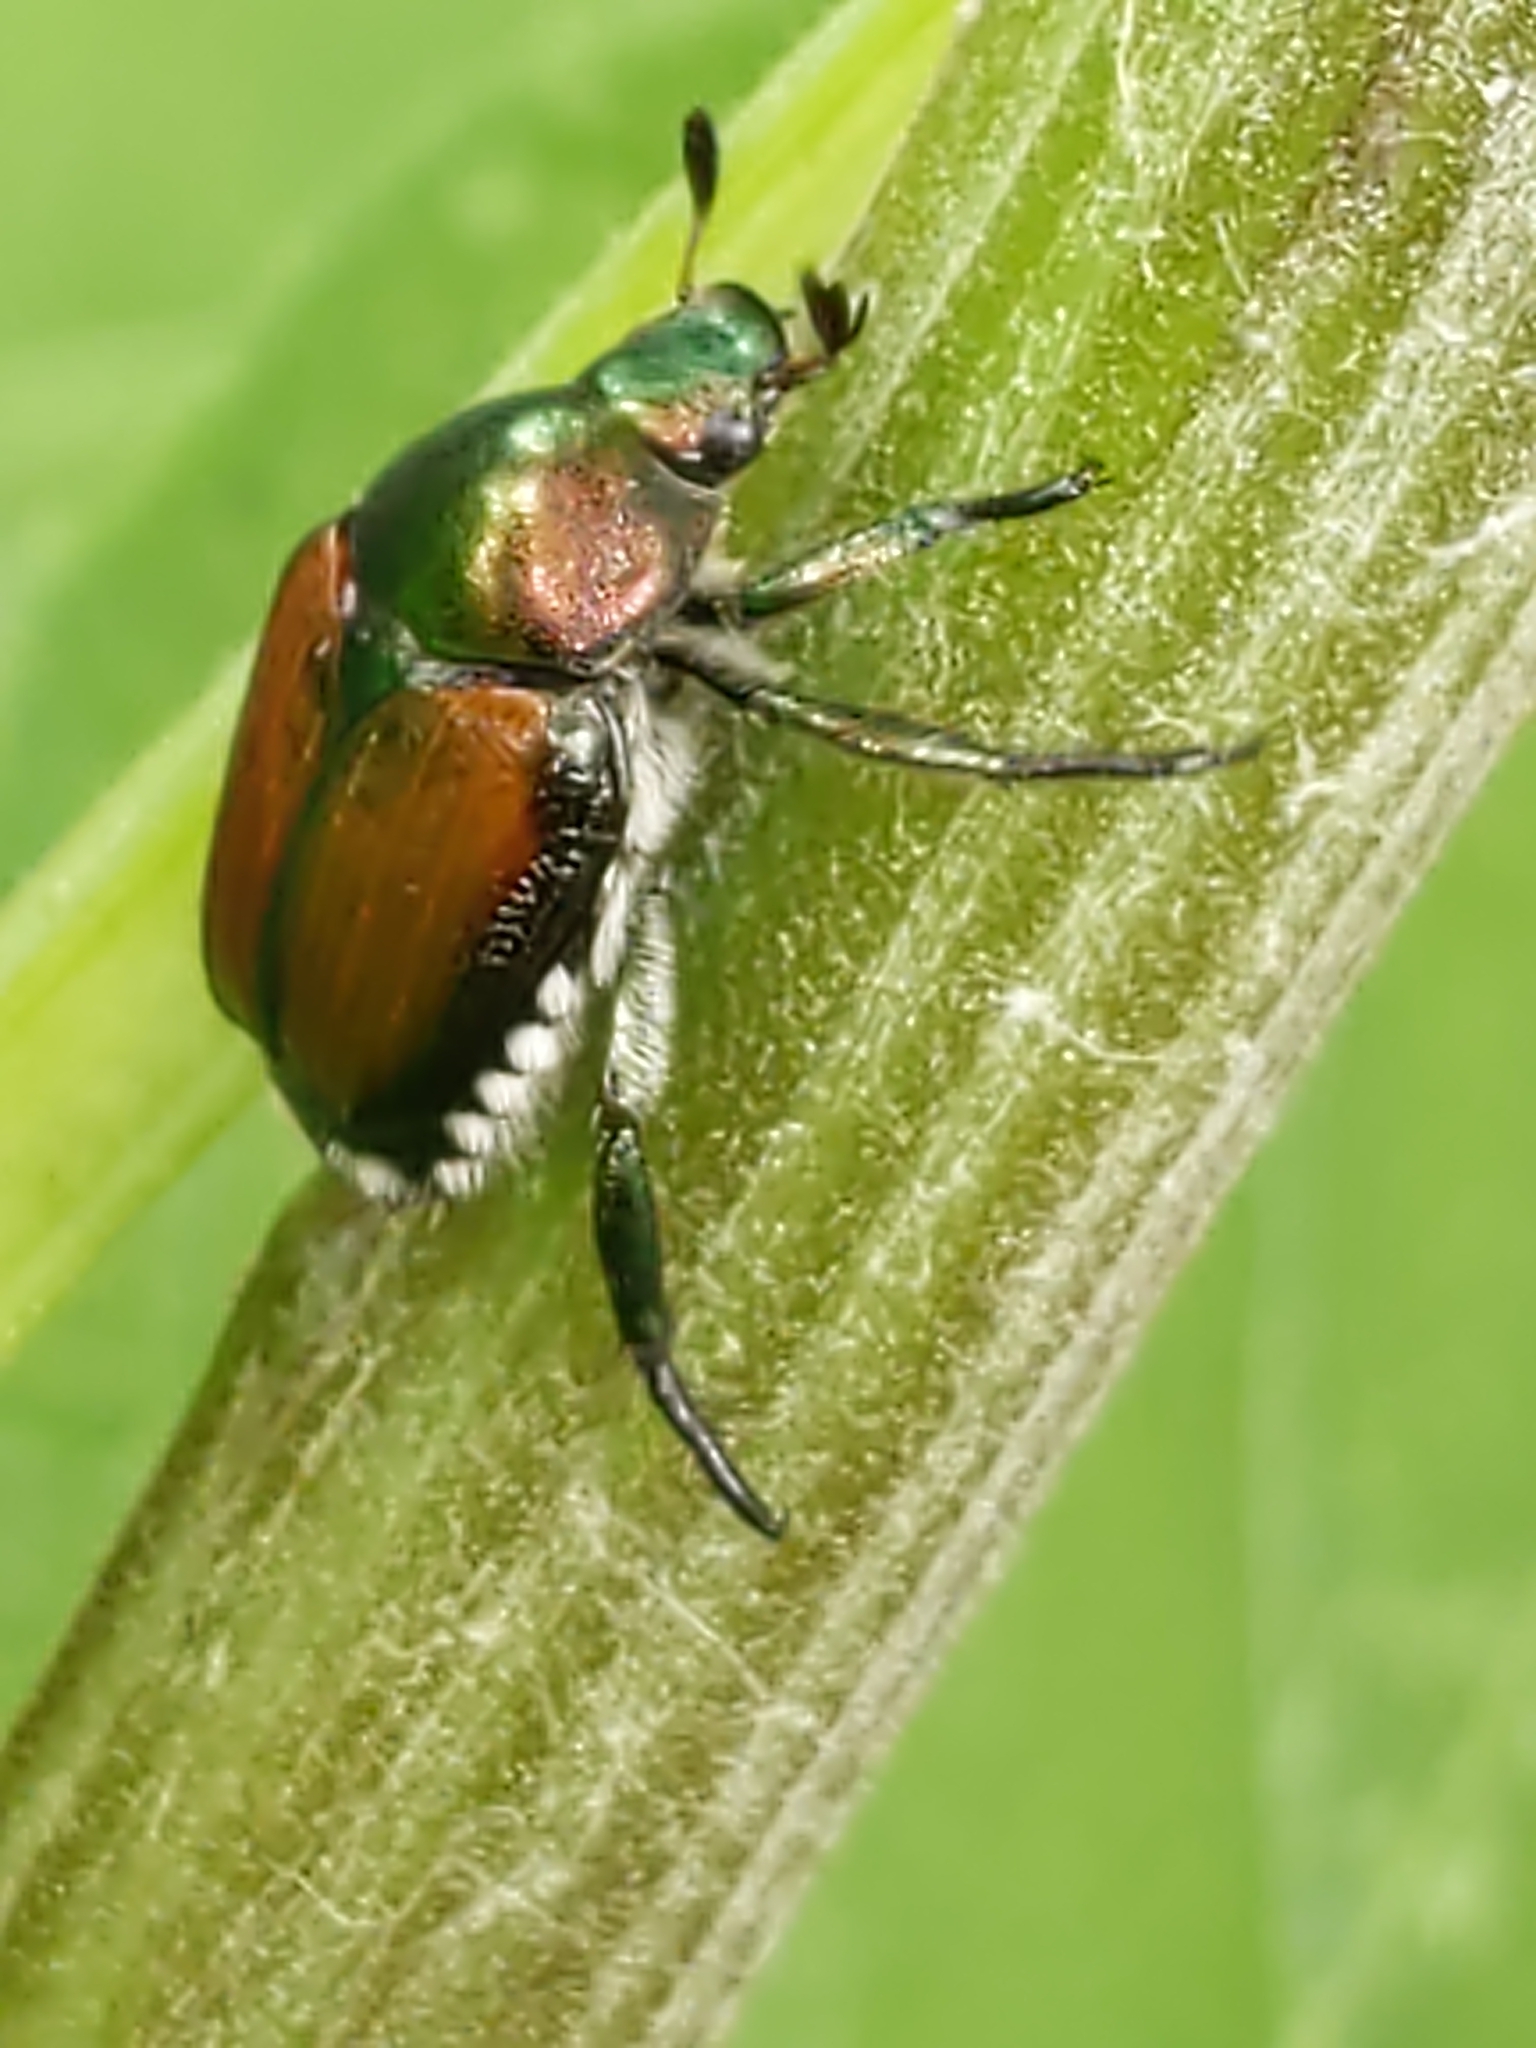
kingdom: Animalia
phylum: Arthropoda
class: Insecta
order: Coleoptera
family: Scarabaeidae
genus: Popillia
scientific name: Popillia japonica
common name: Japanese beetle
